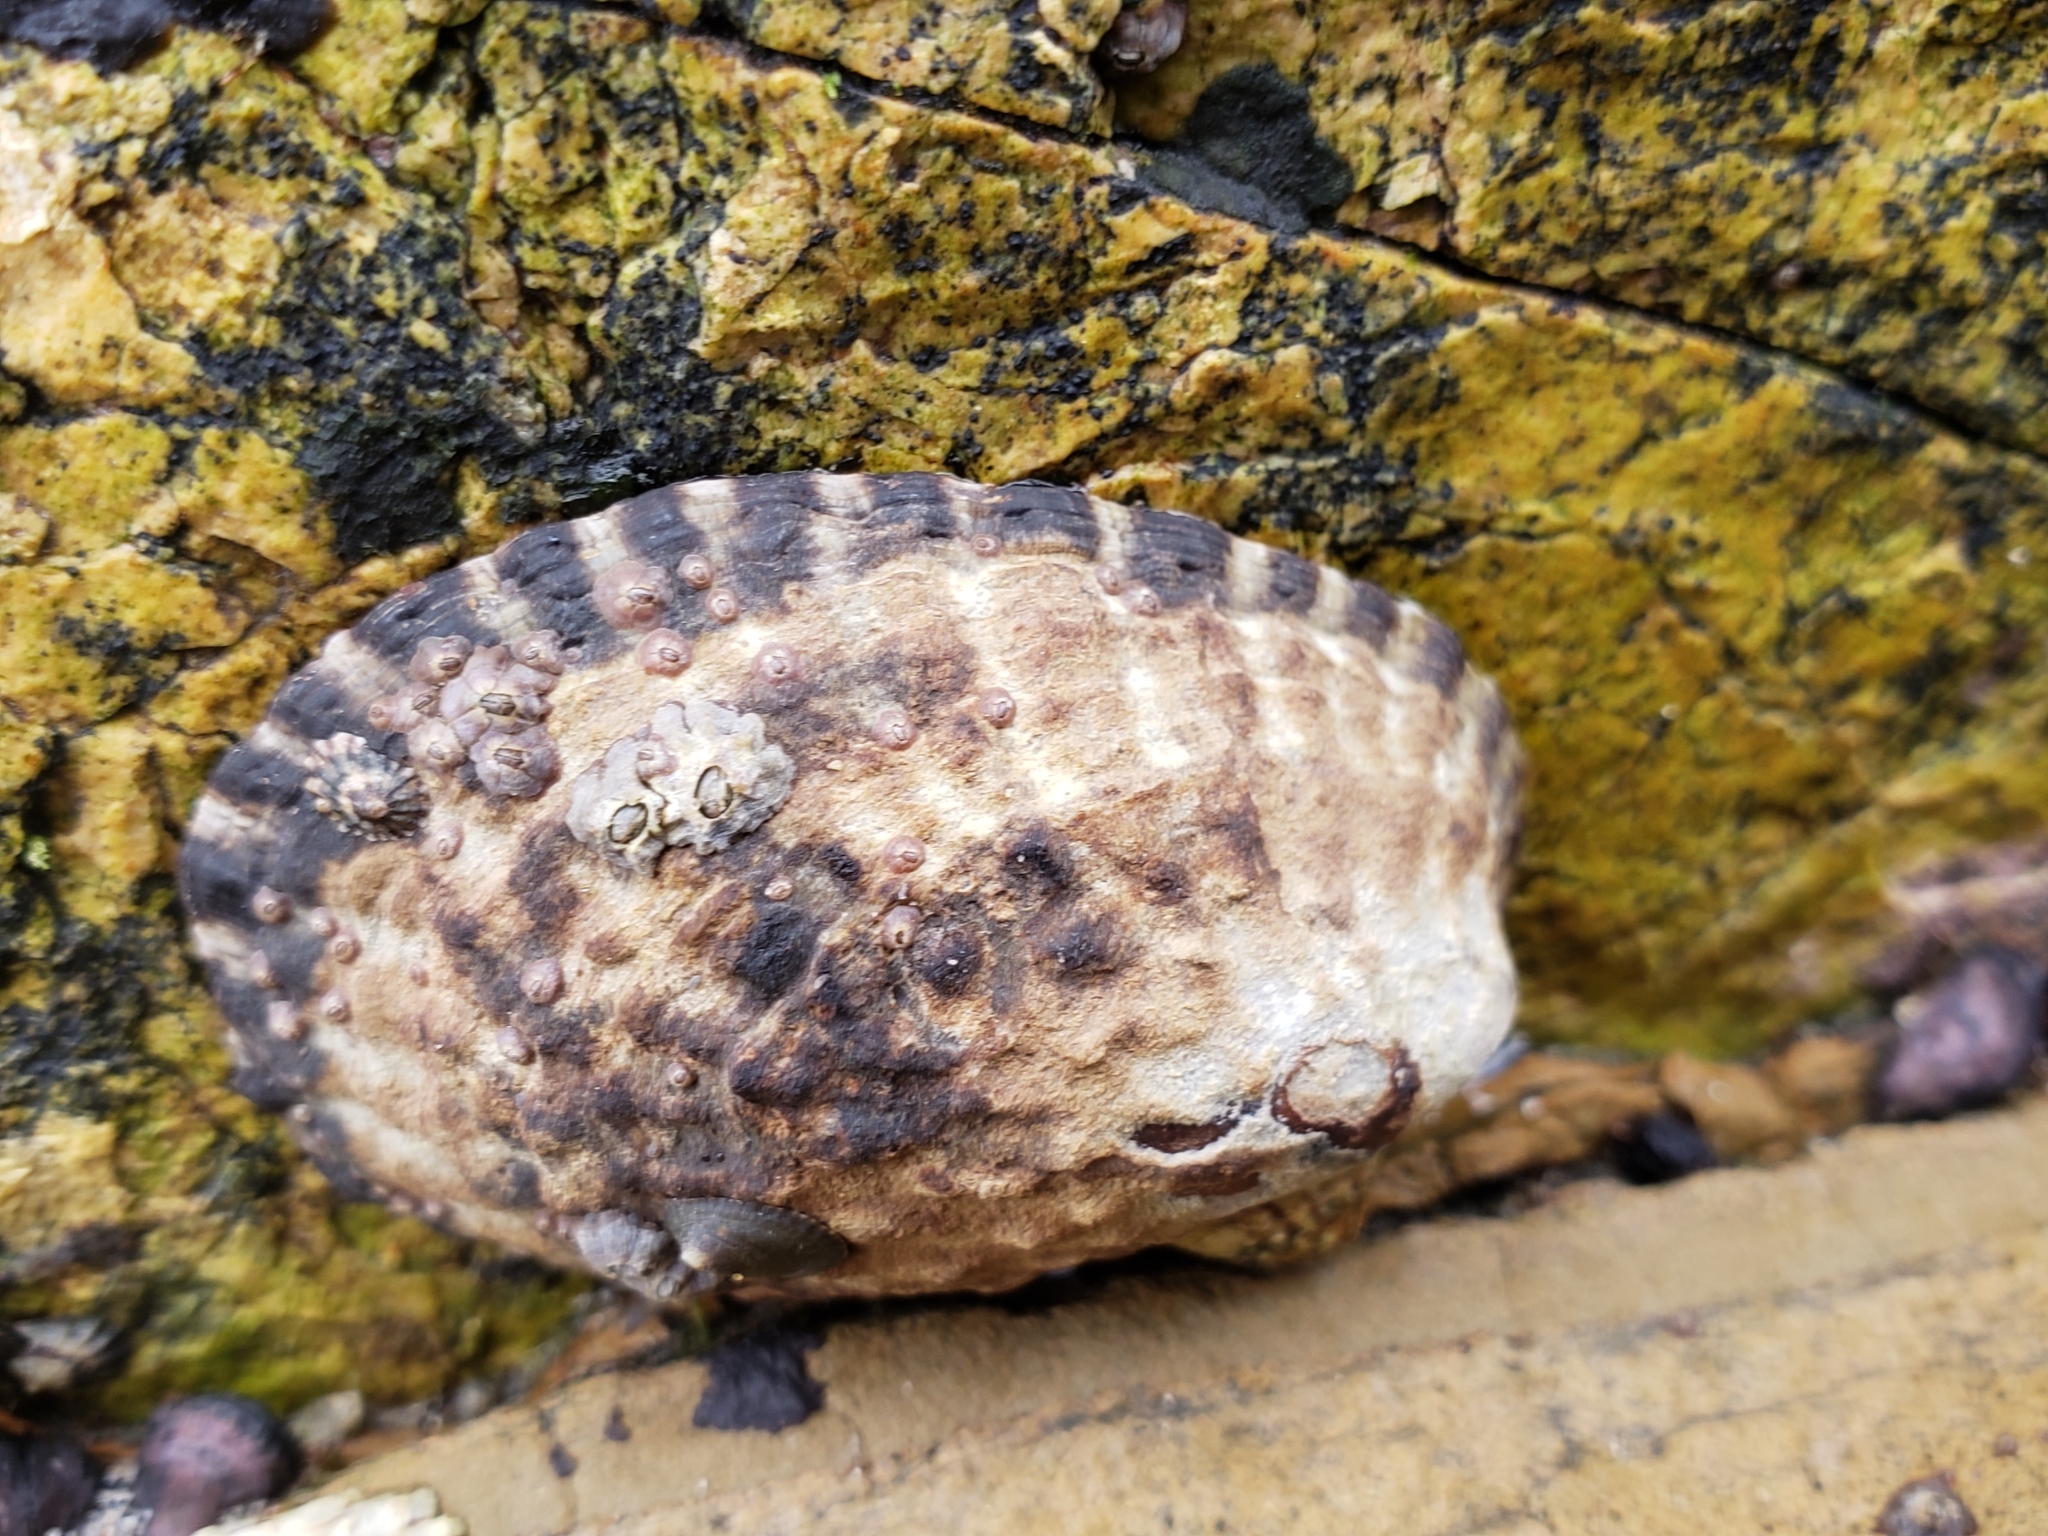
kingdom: Animalia
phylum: Mollusca
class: Gastropoda
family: Lottiidae
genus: Lottia
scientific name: Lottia gigantea
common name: Owl limpet
